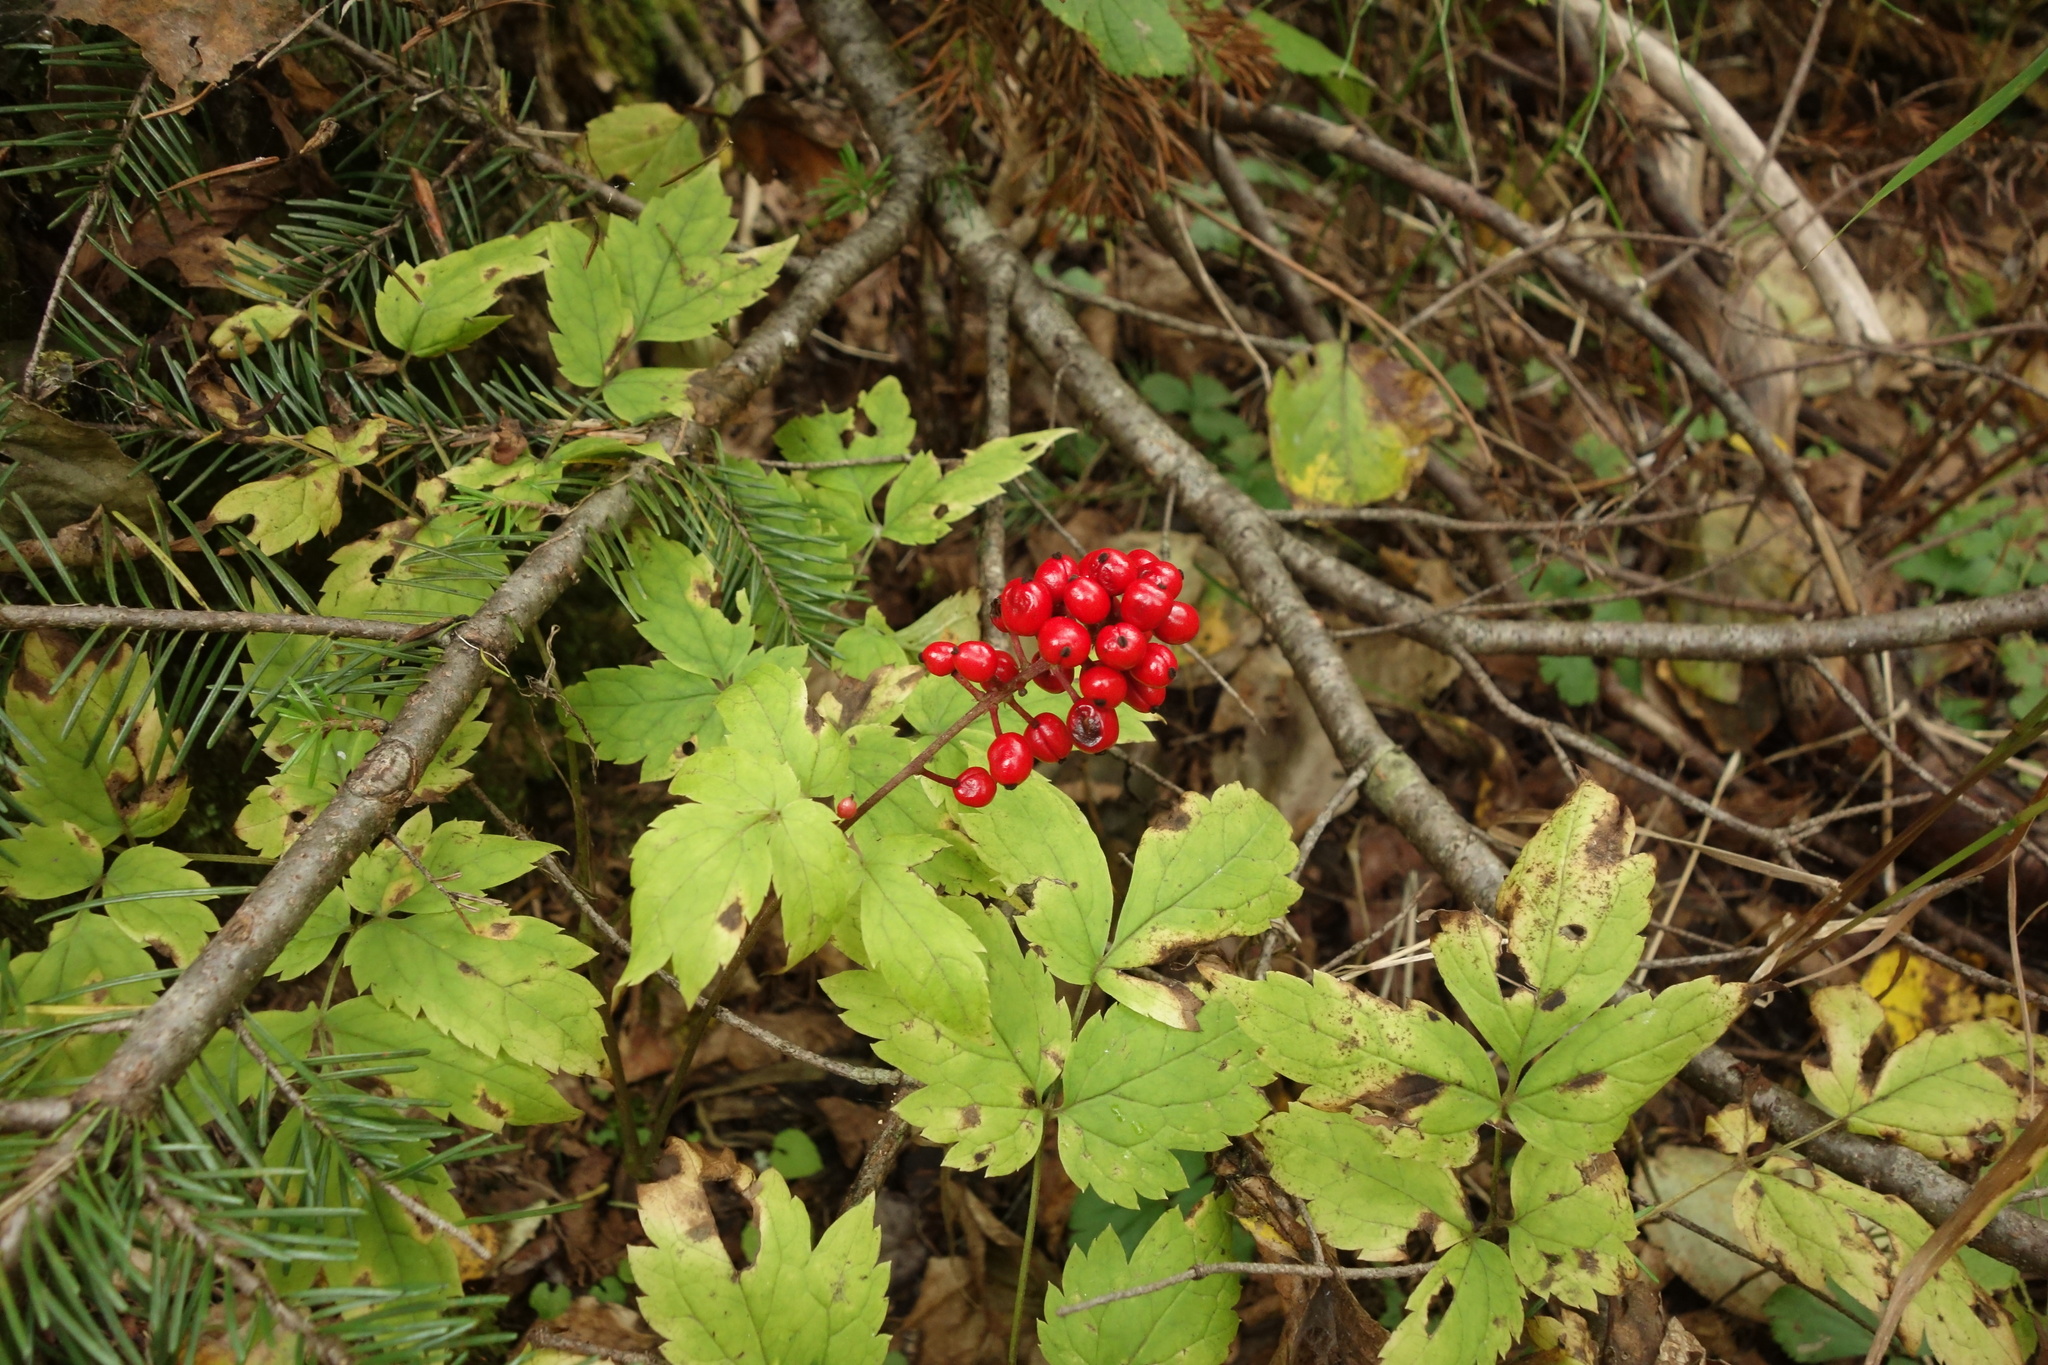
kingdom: Plantae
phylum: Tracheophyta
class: Magnoliopsida
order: Ranunculales
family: Ranunculaceae
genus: Actaea
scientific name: Actaea erythrocarpa
